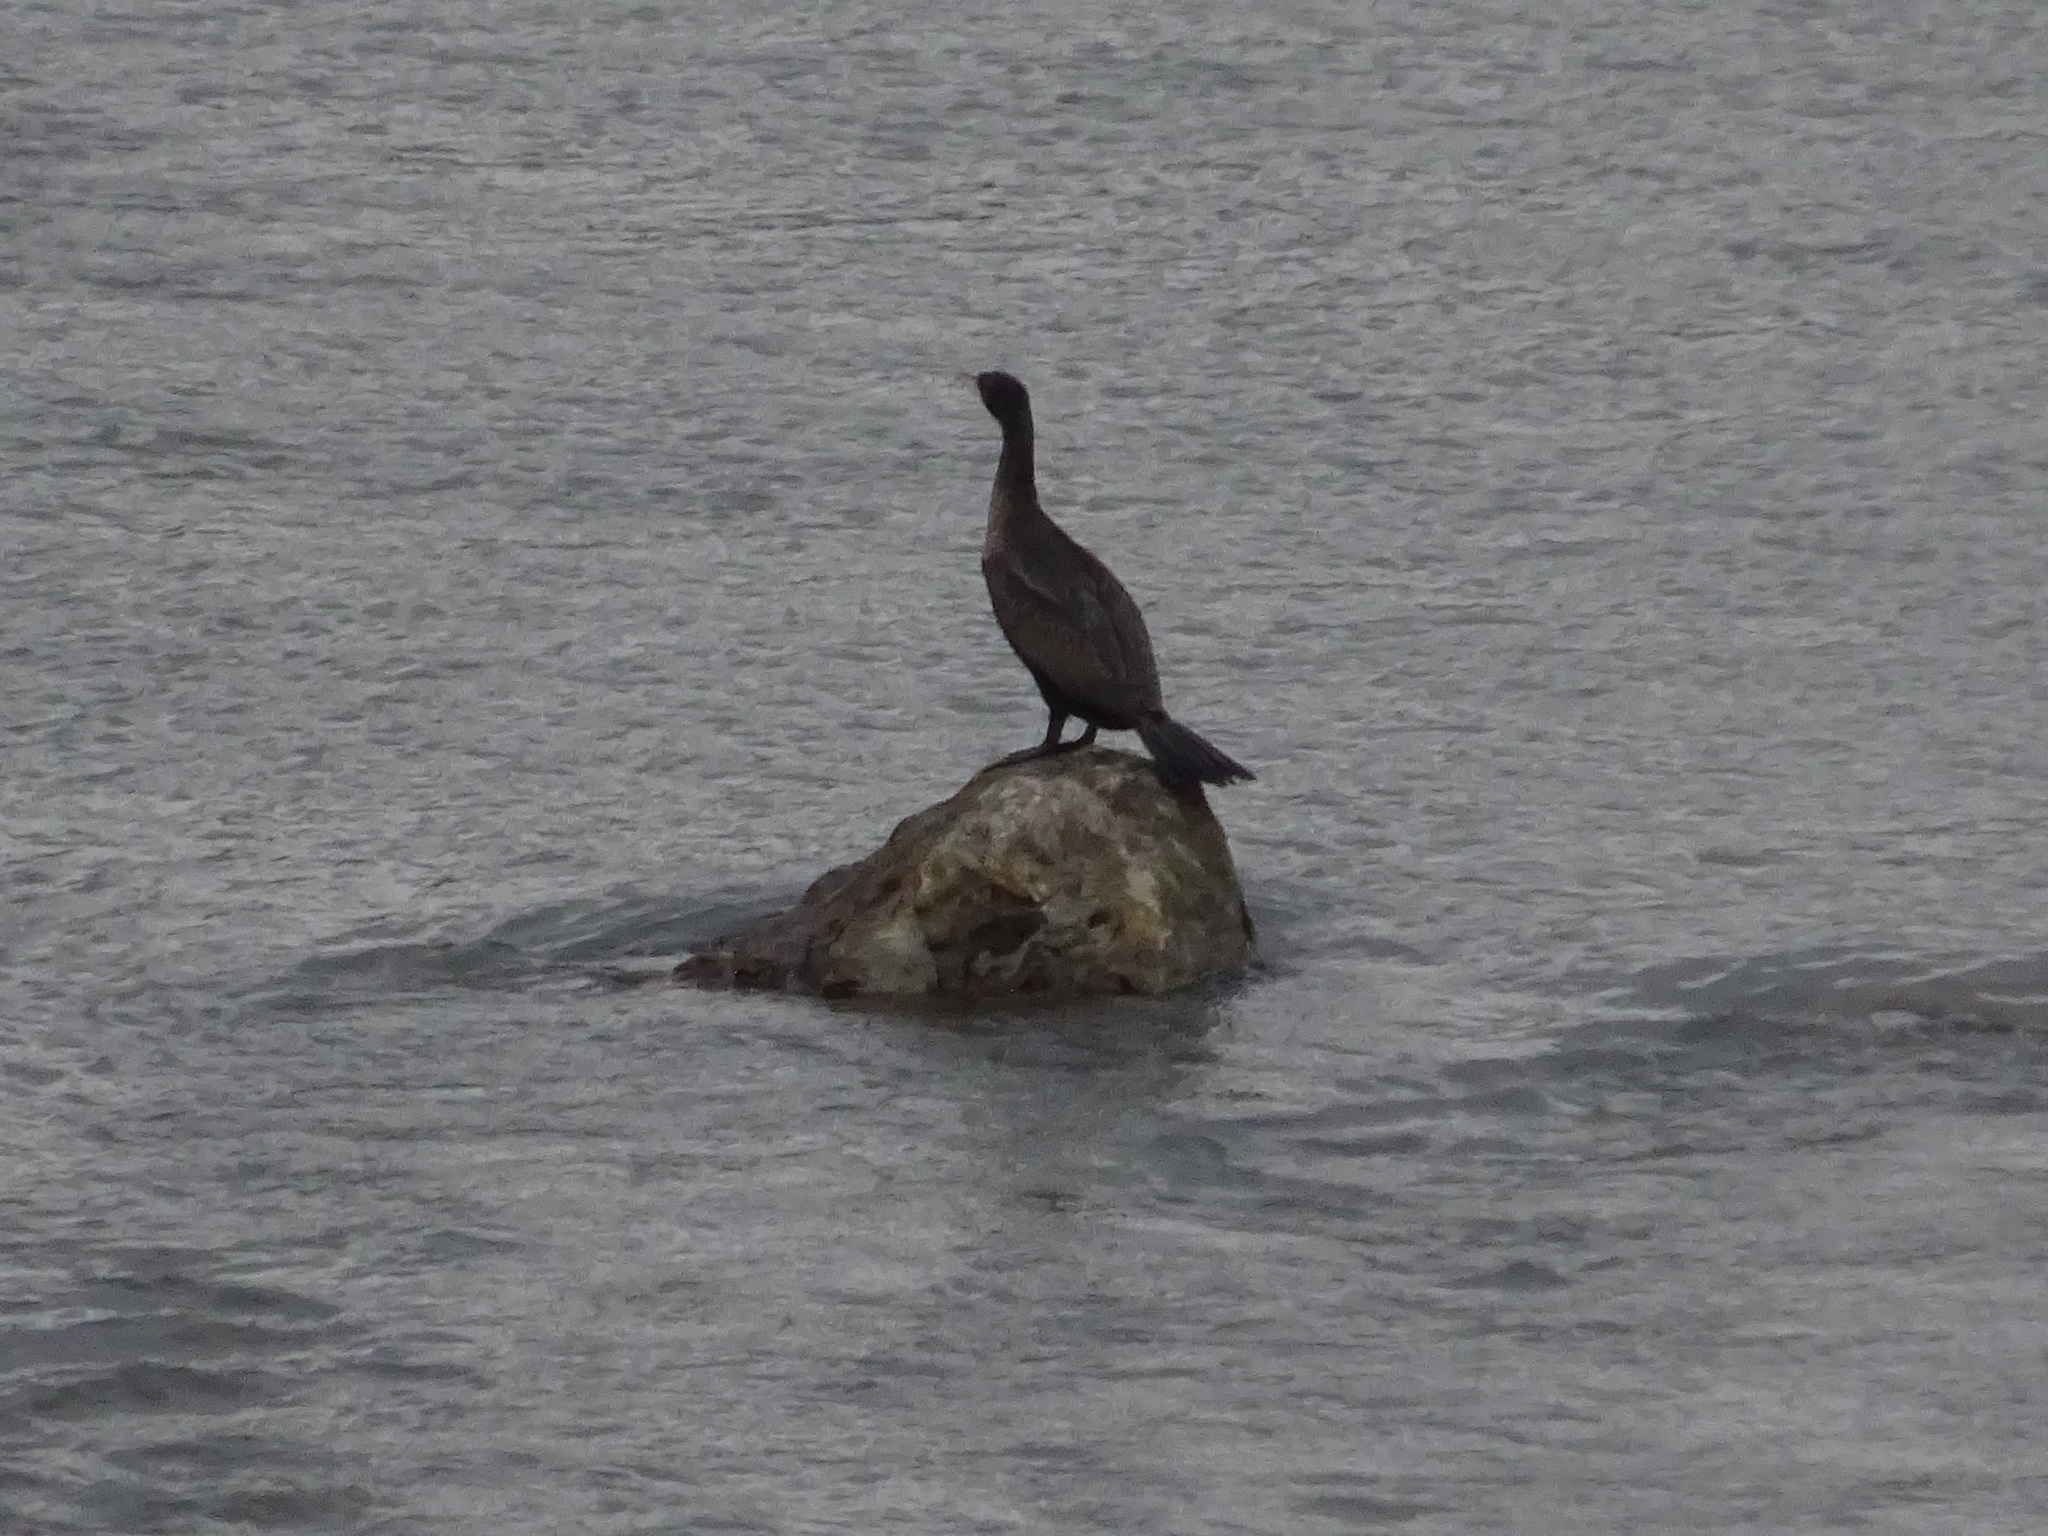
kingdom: Animalia
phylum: Chordata
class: Aves
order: Suliformes
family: Phalacrocoracidae
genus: Phalacrocorax
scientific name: Phalacrocorax carbo
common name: Great cormorant
